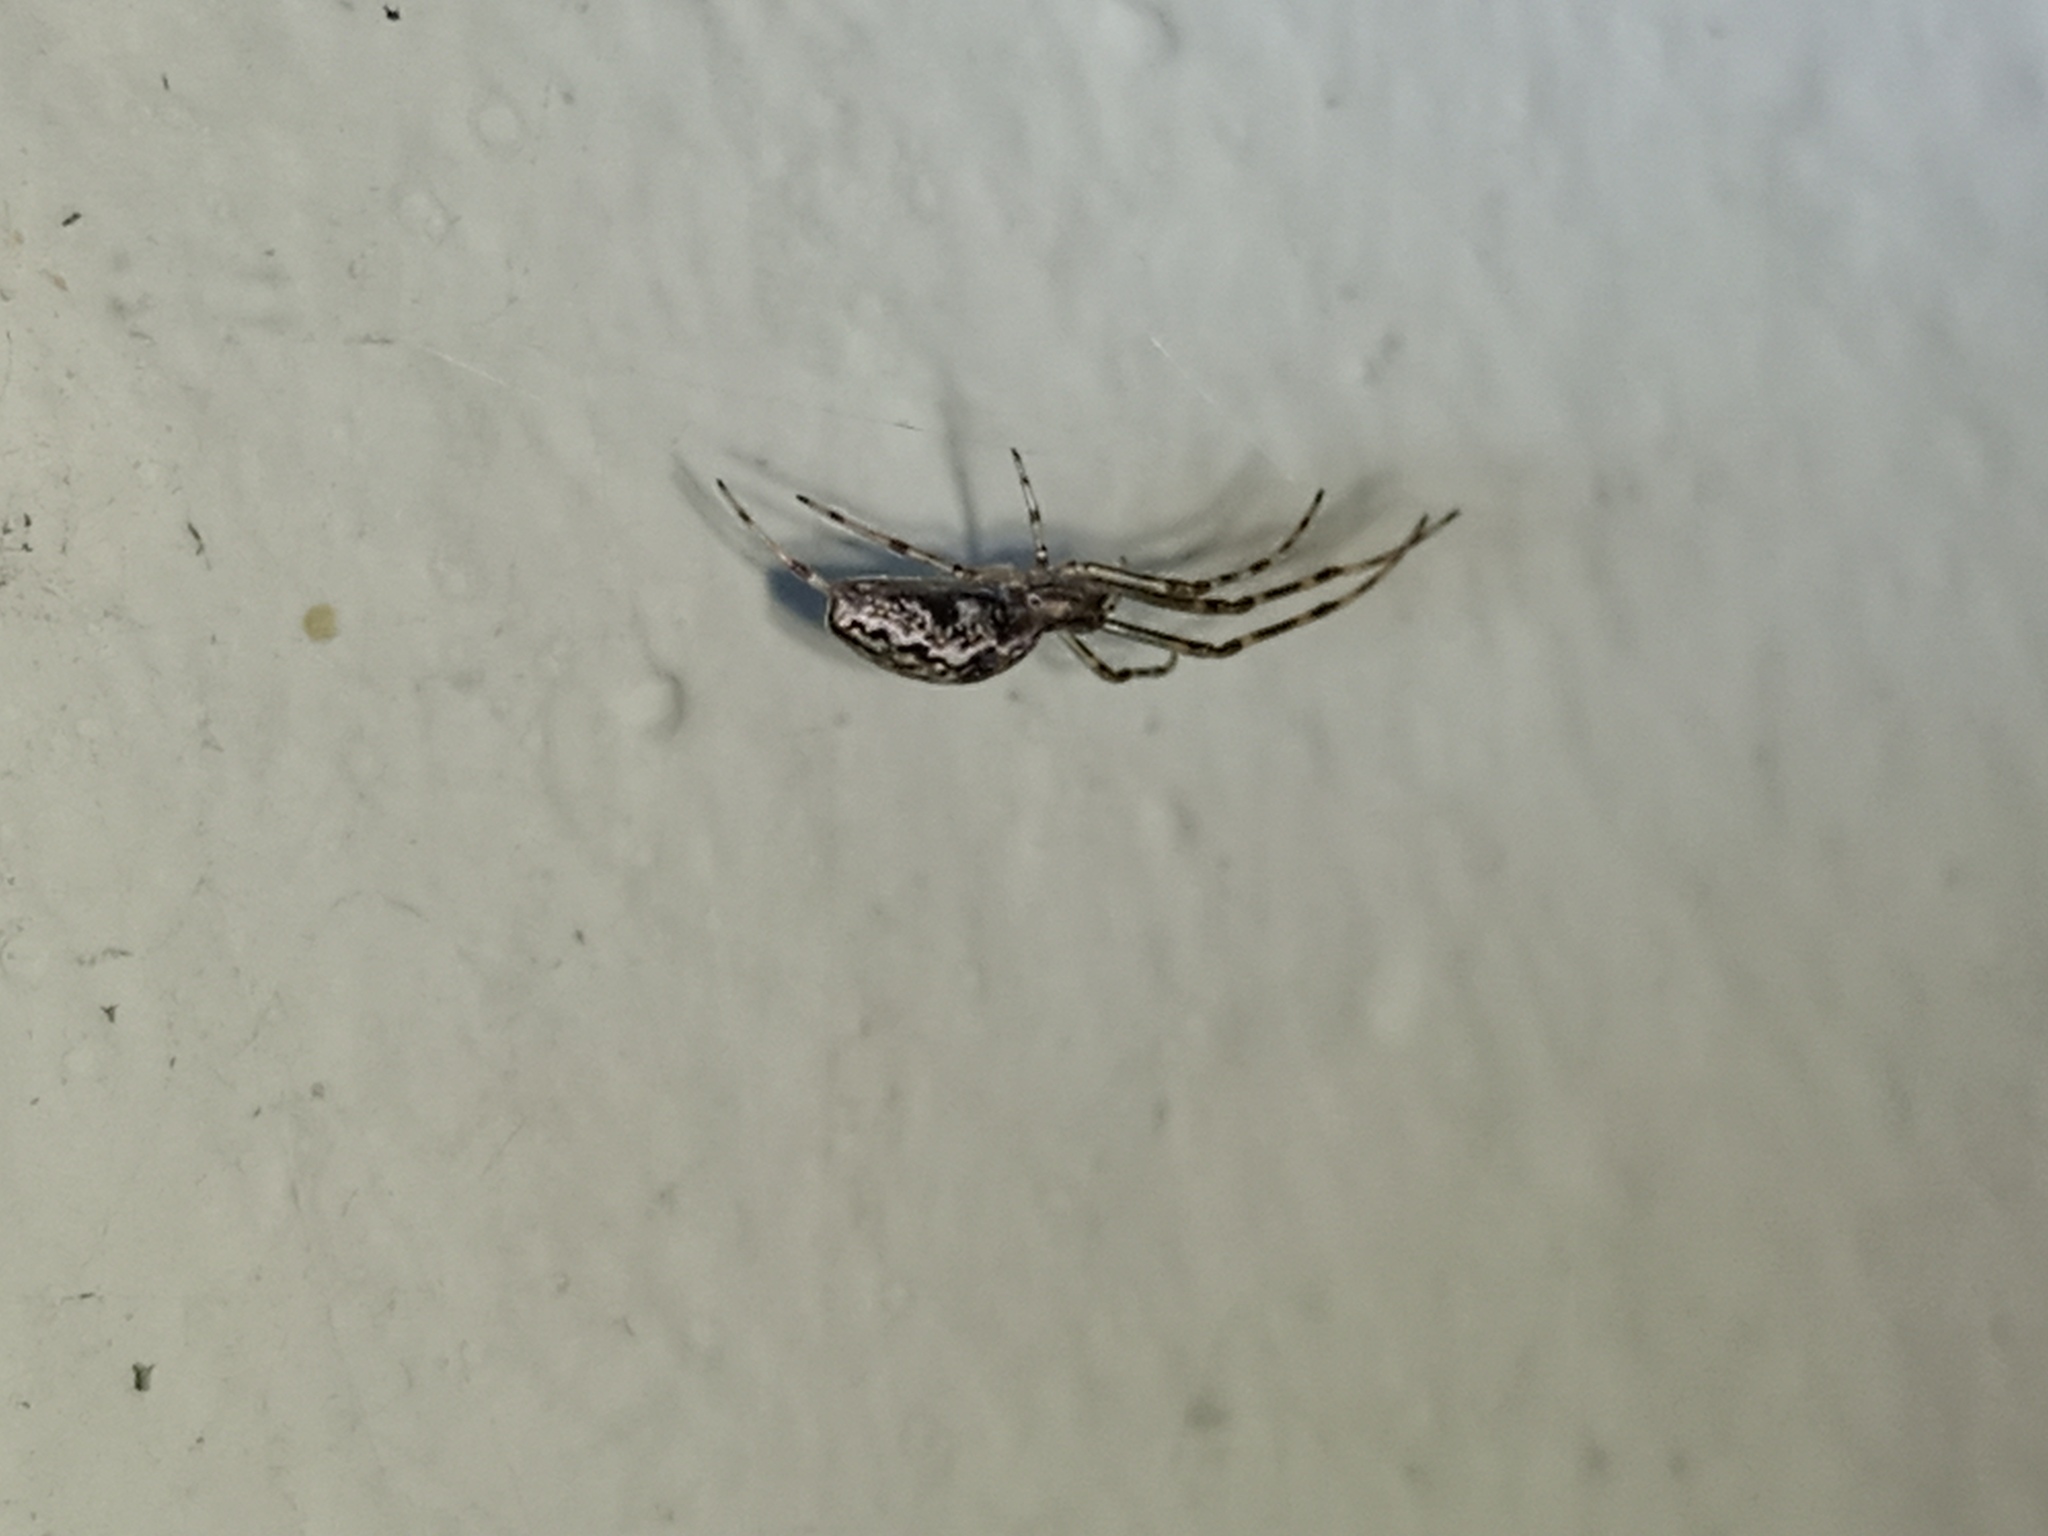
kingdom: Animalia
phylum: Arthropoda
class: Arachnida
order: Araneae
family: Tetragnathidae
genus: Tetragnatha
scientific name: Tetragnatha
